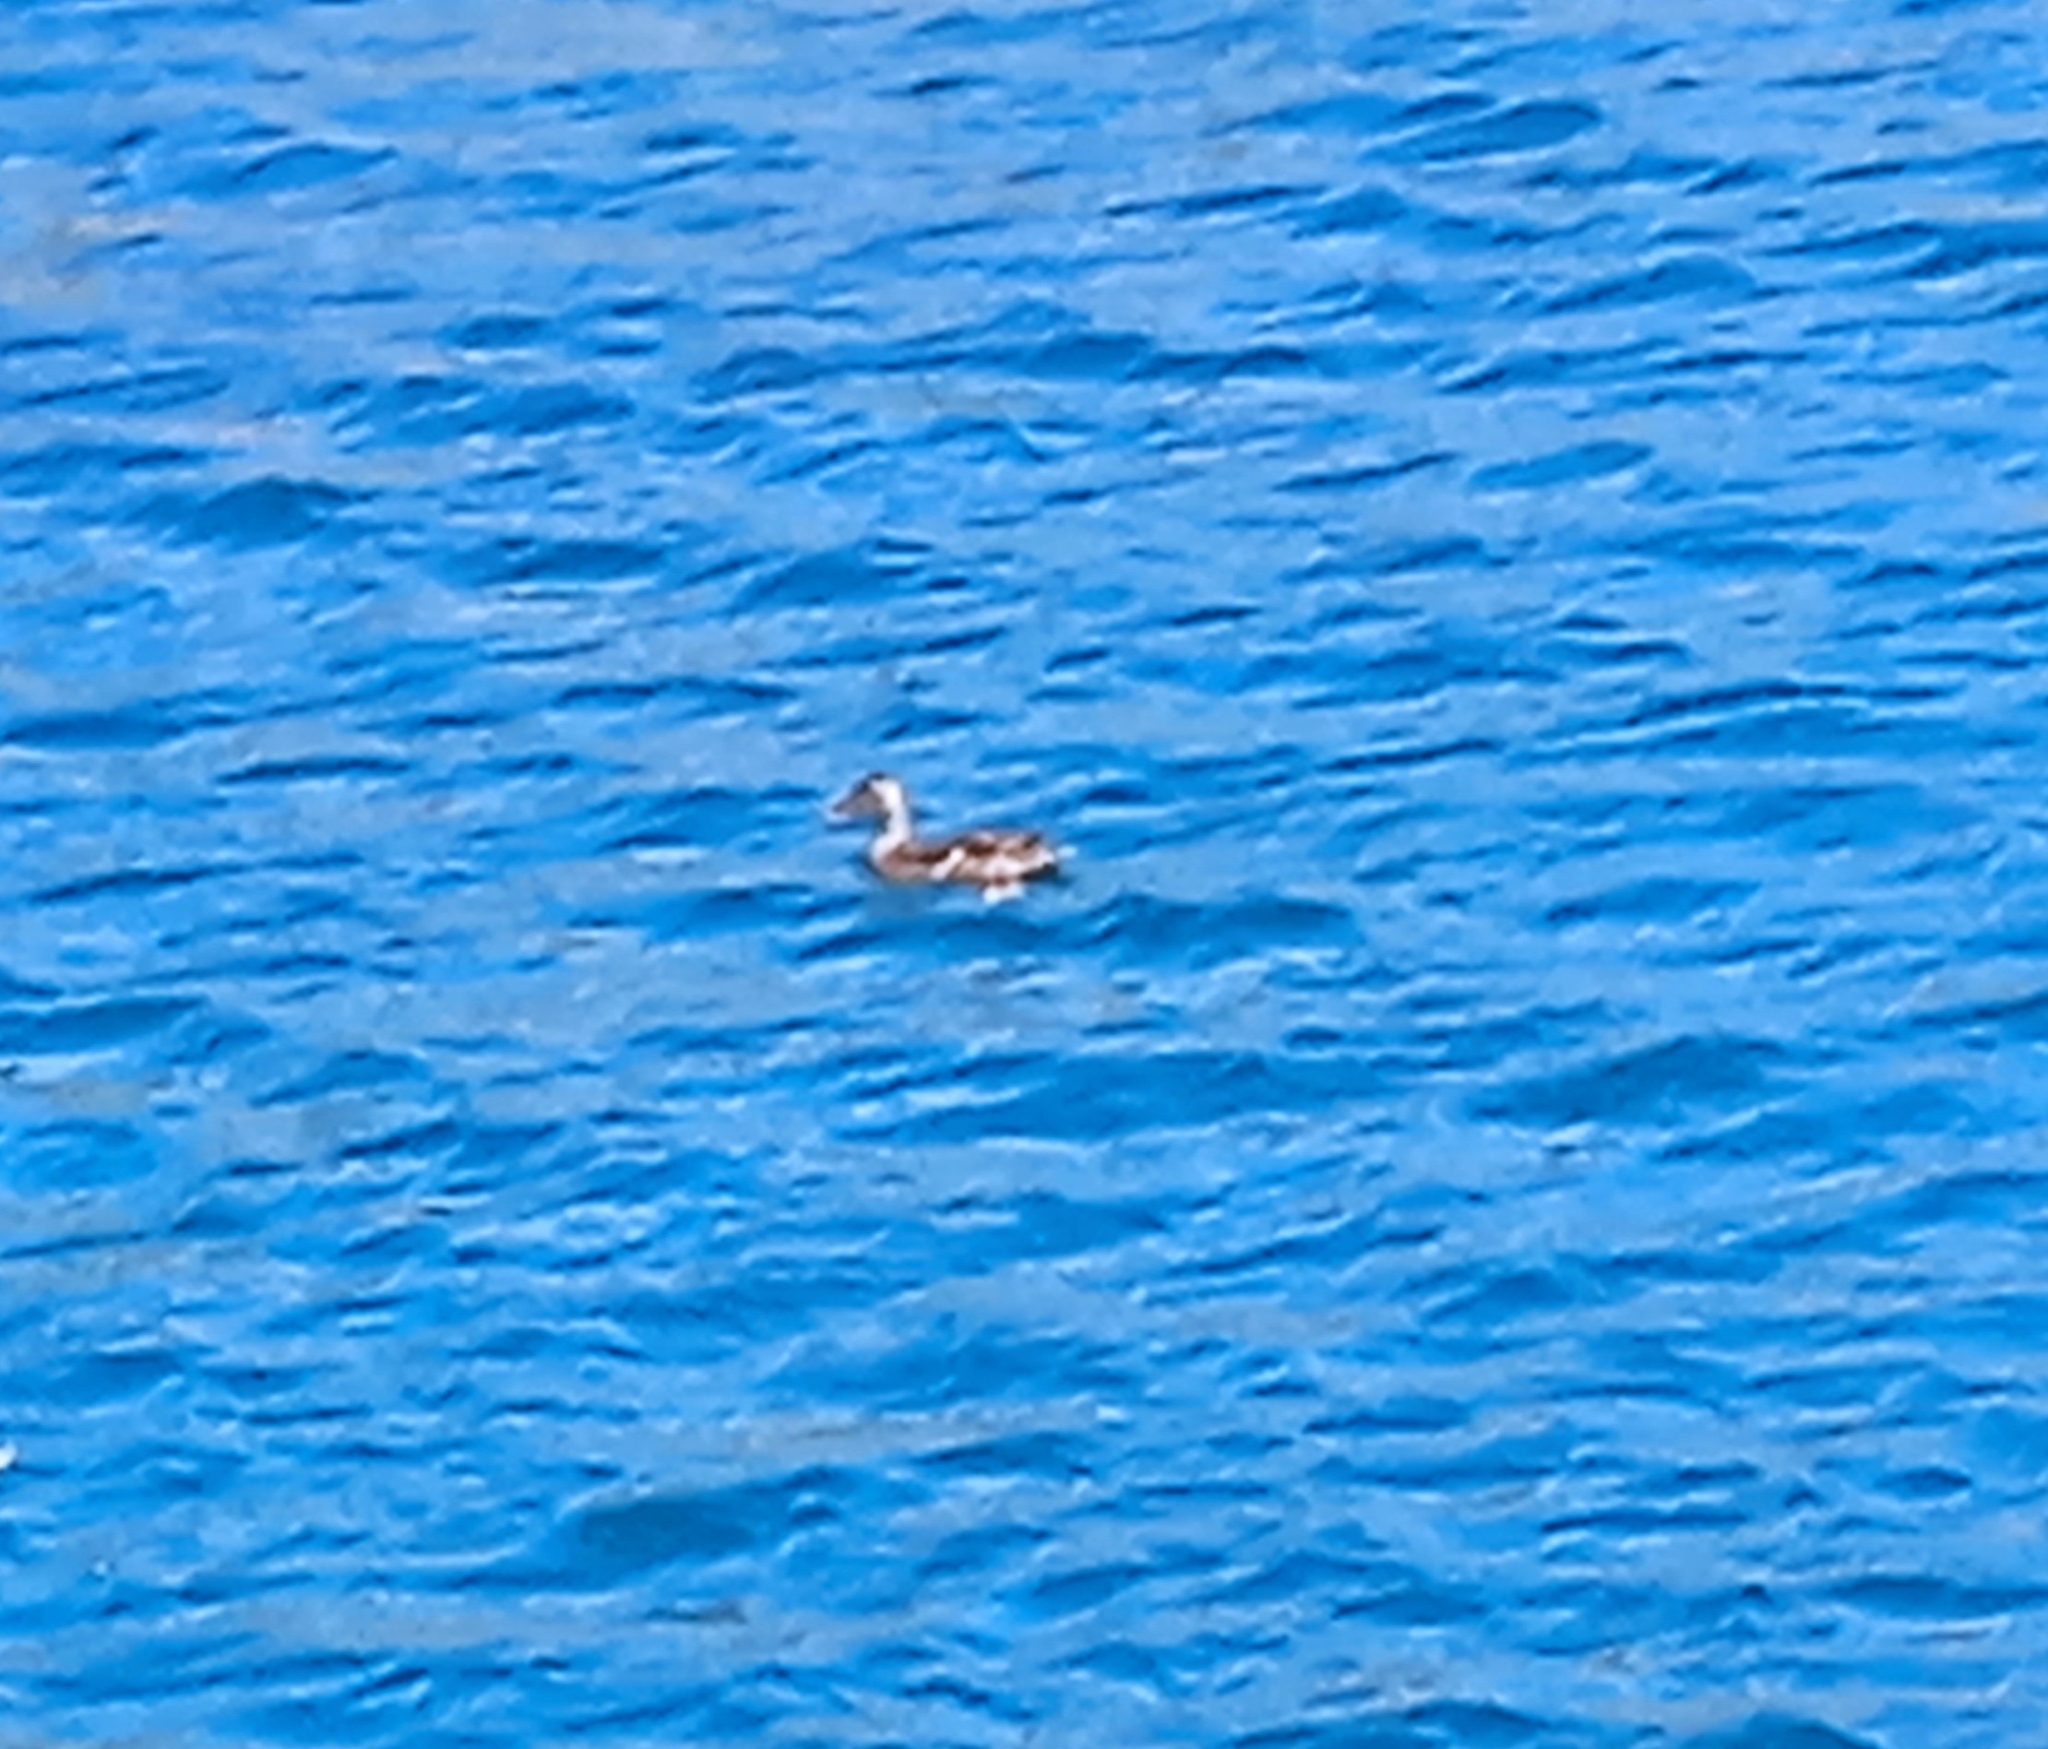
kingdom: Animalia
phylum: Chordata
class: Aves
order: Anseriformes
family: Anatidae
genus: Anas
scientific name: Anas platyrhynchos
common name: Mallard
